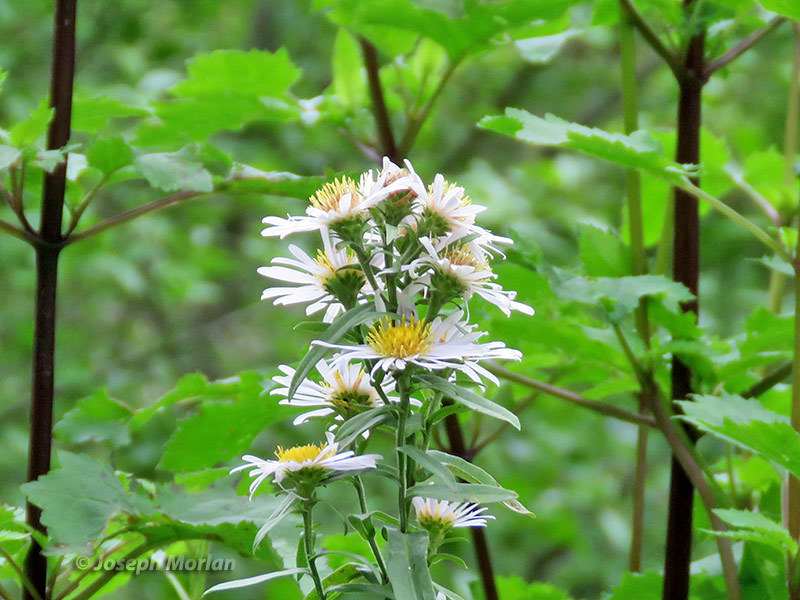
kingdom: Plantae
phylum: Tracheophyta
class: Magnoliopsida
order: Asterales
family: Asteraceae
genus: Symphyotrichum
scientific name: Symphyotrichum chilense
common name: Pacific aster
